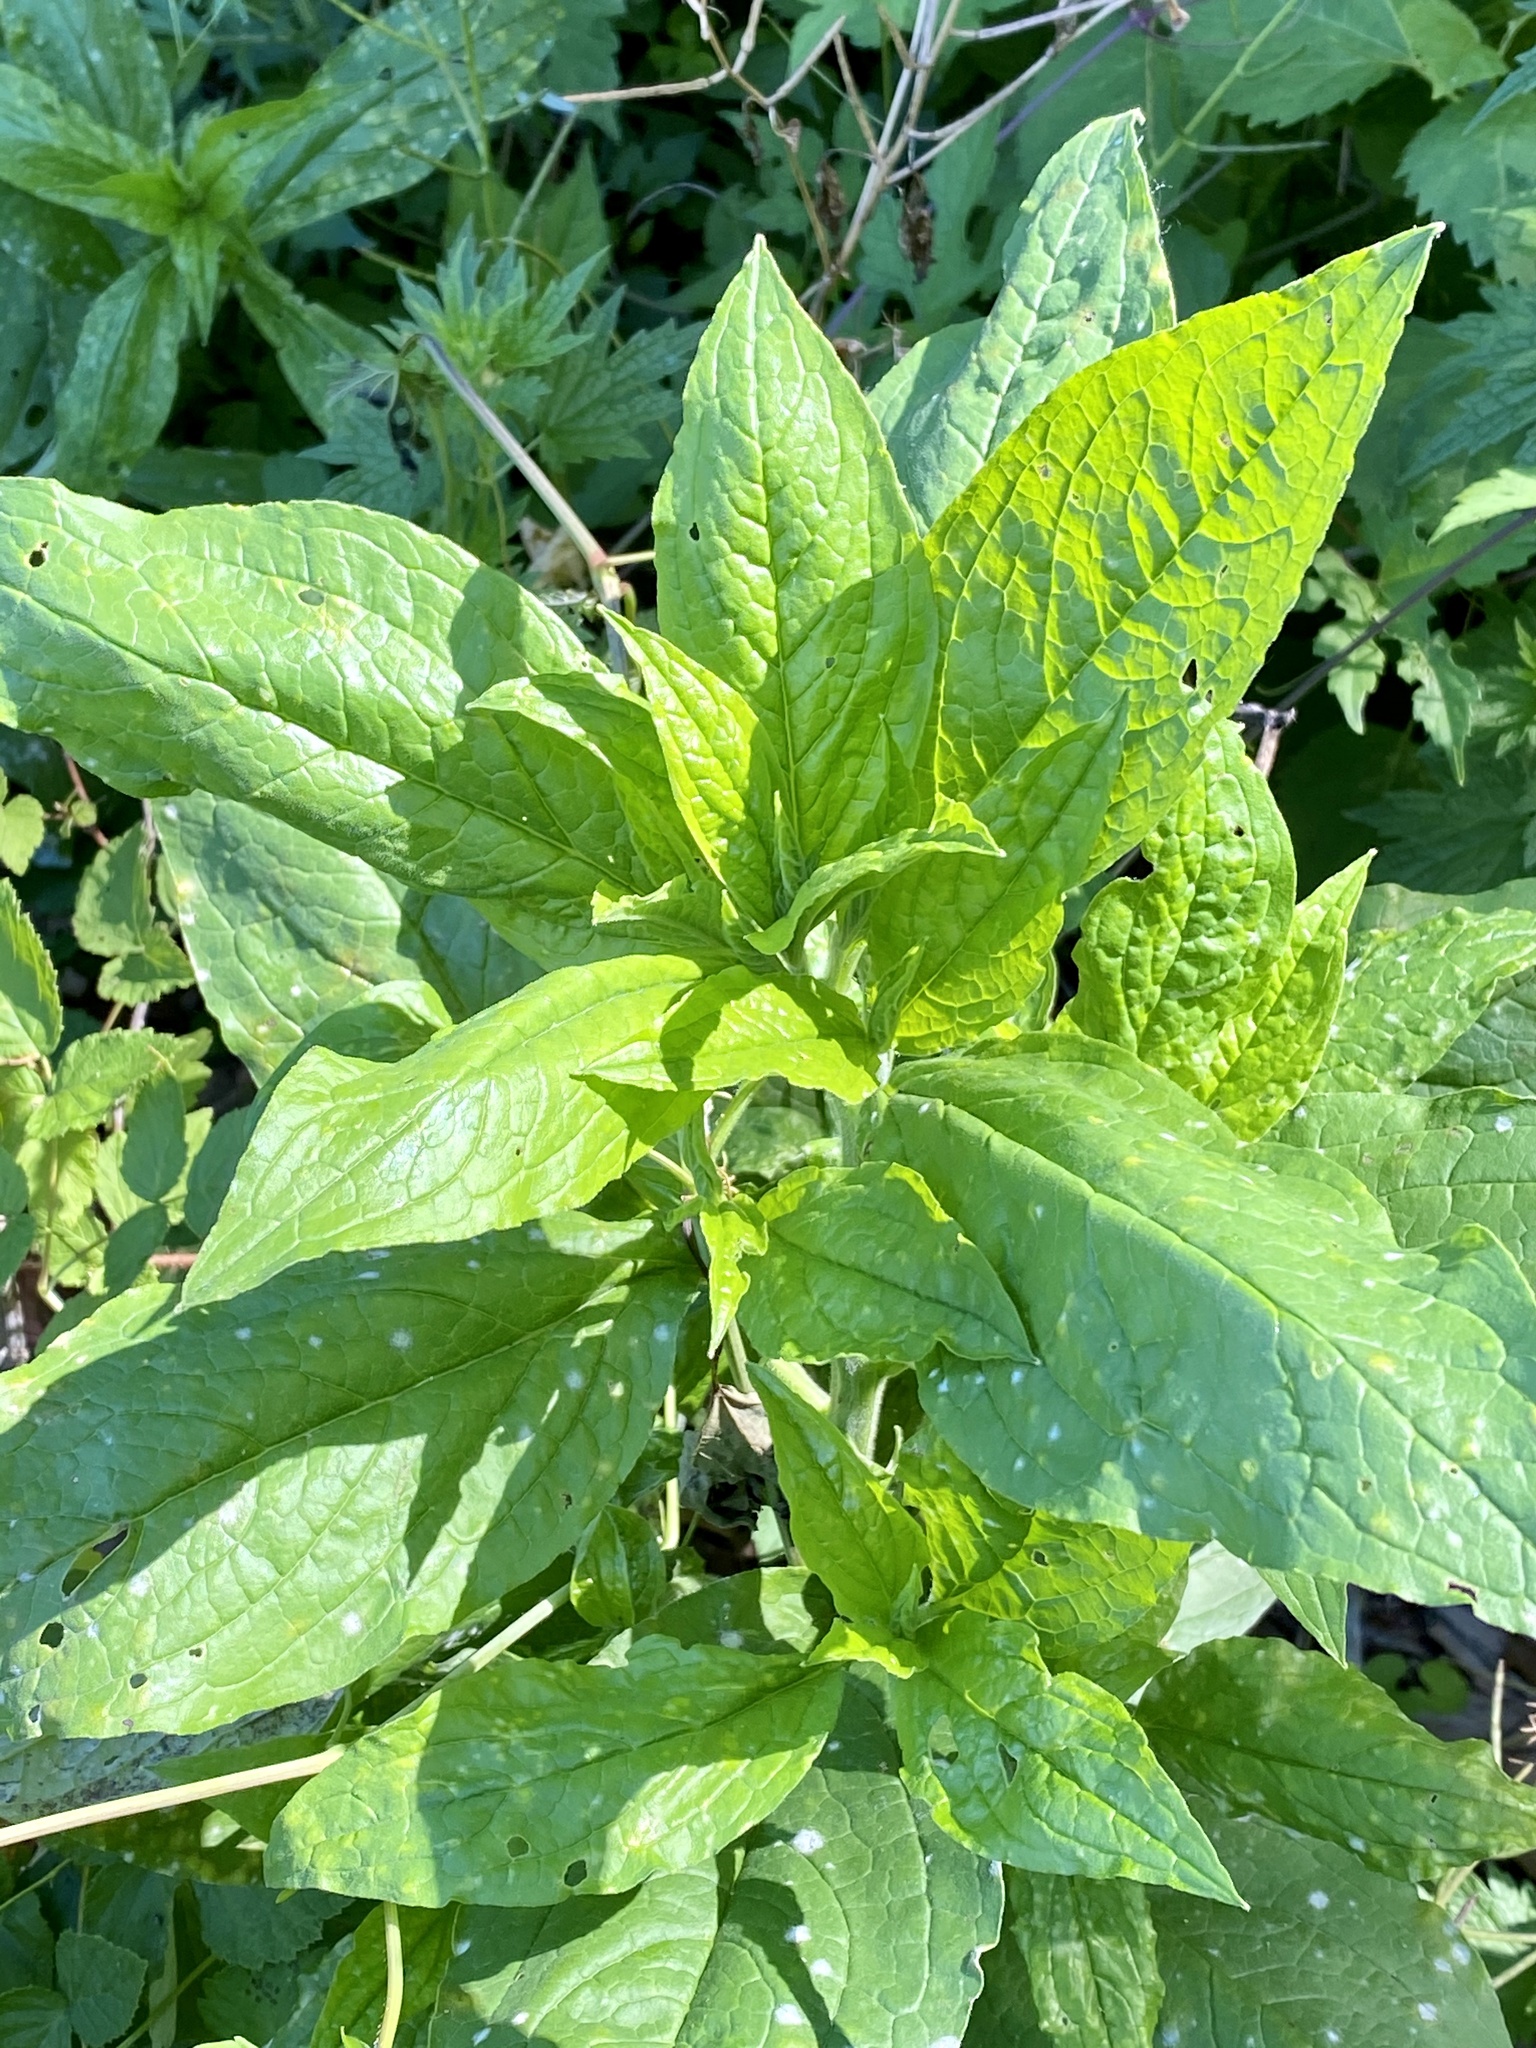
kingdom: Plantae
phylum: Tracheophyta
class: Magnoliopsida
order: Boraginales
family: Boraginaceae
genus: Hackelia
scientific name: Hackelia virginiana
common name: Beggar's-lice
